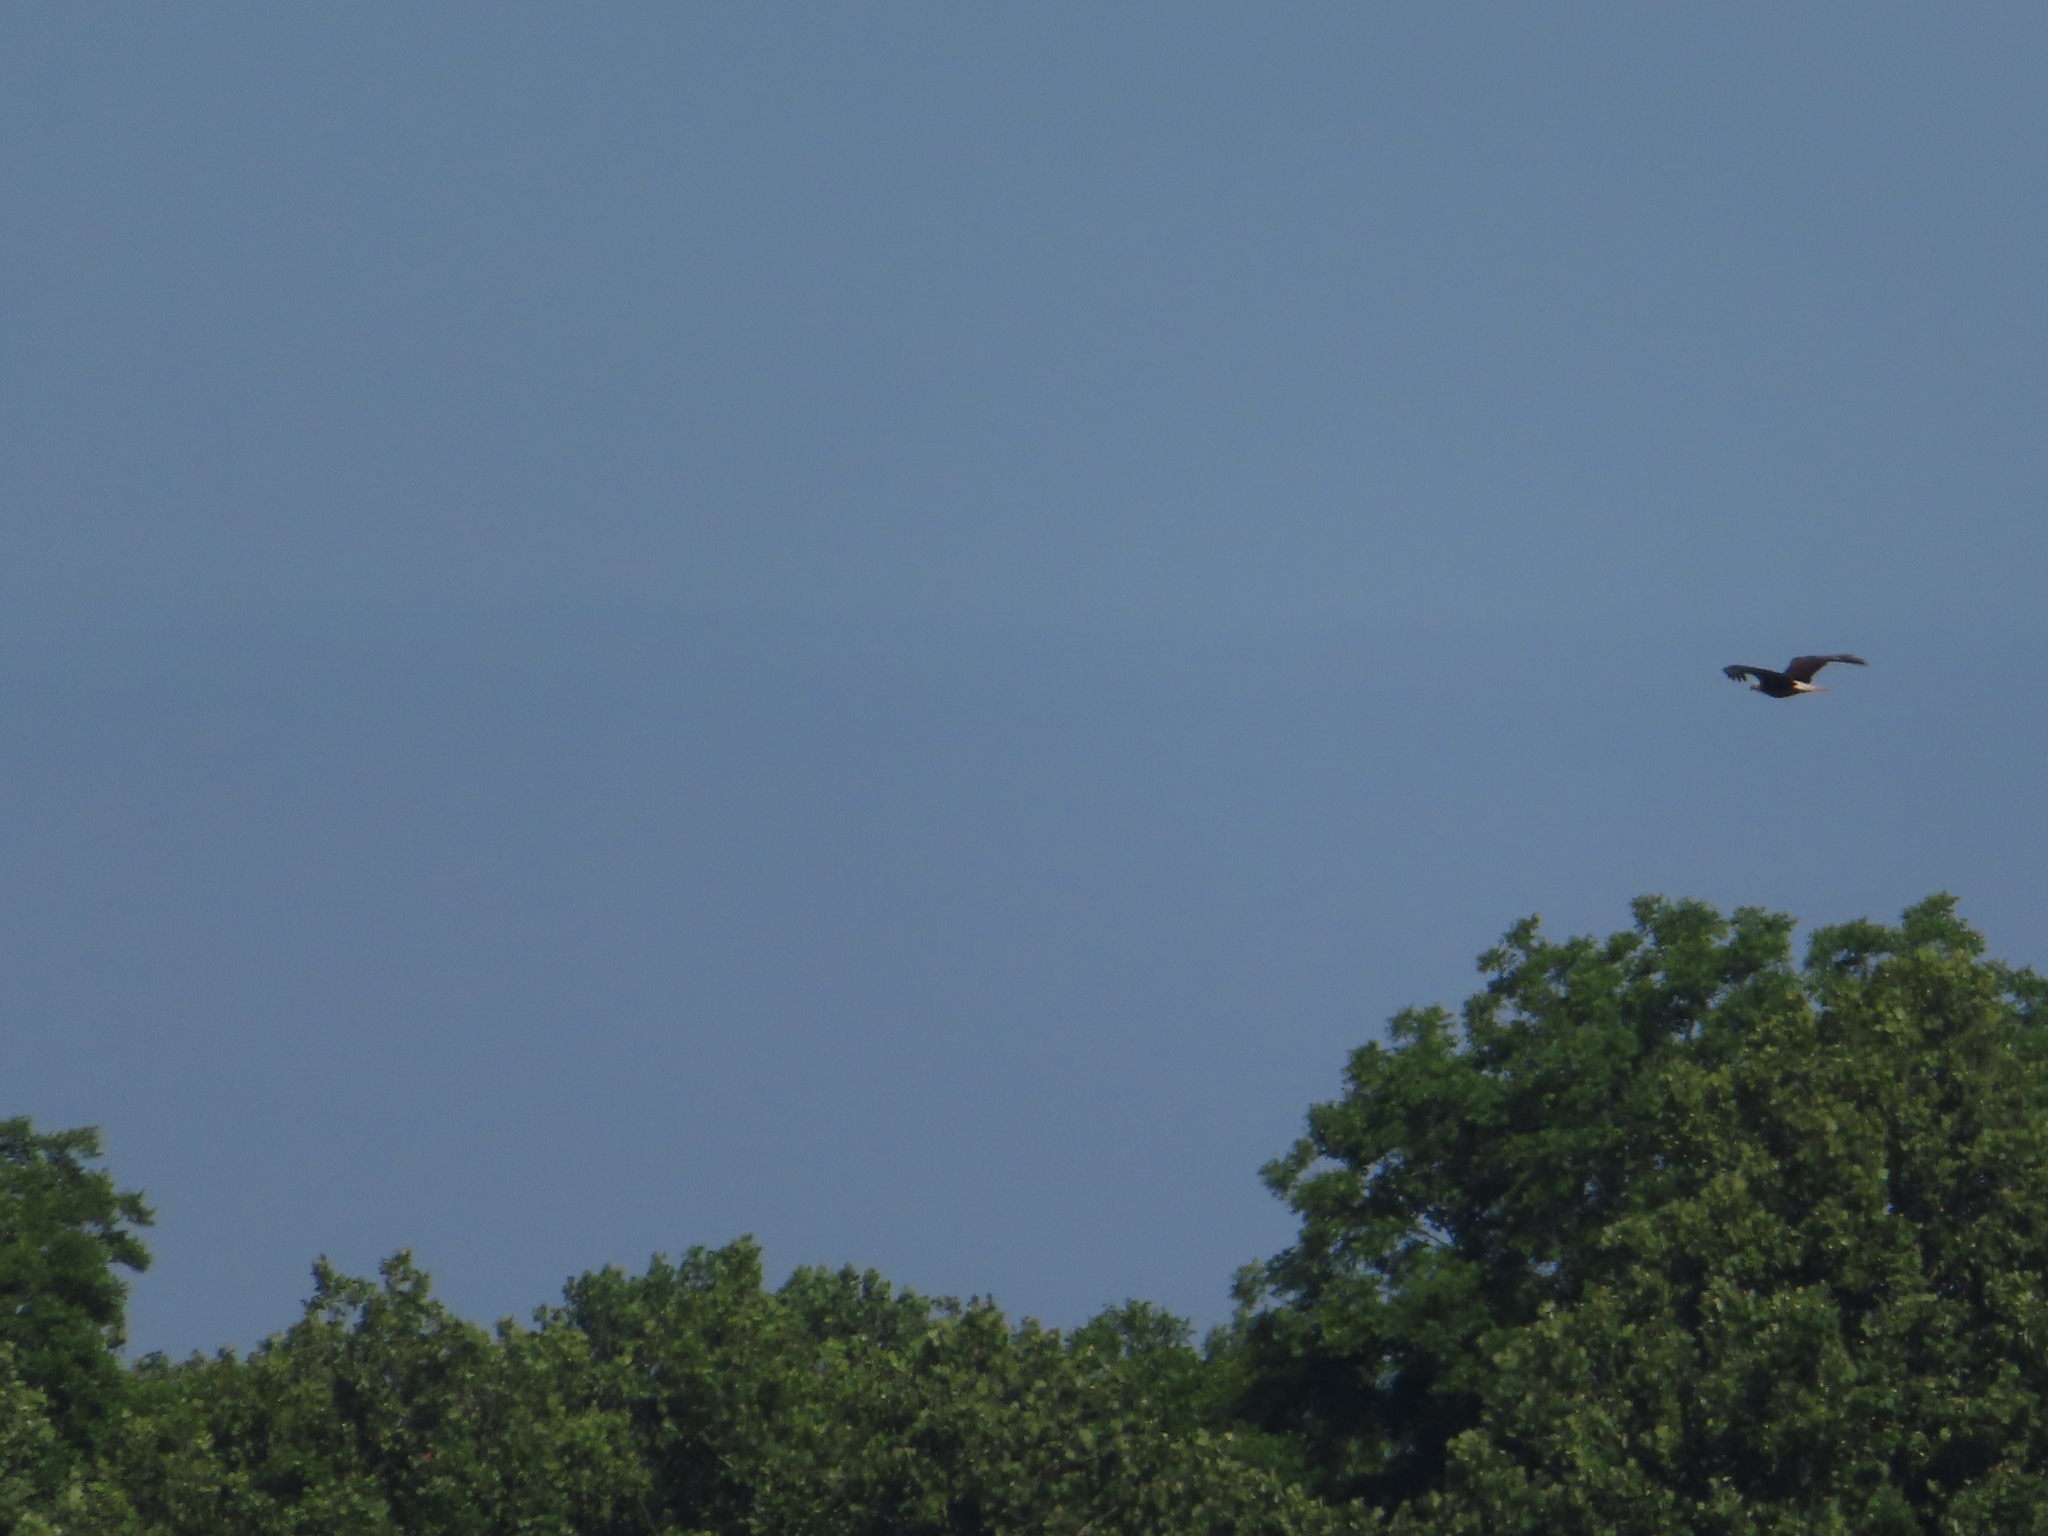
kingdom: Animalia
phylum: Chordata
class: Aves
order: Accipitriformes
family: Accipitridae
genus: Haliaeetus
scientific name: Haliaeetus leucocephalus
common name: Bald eagle
